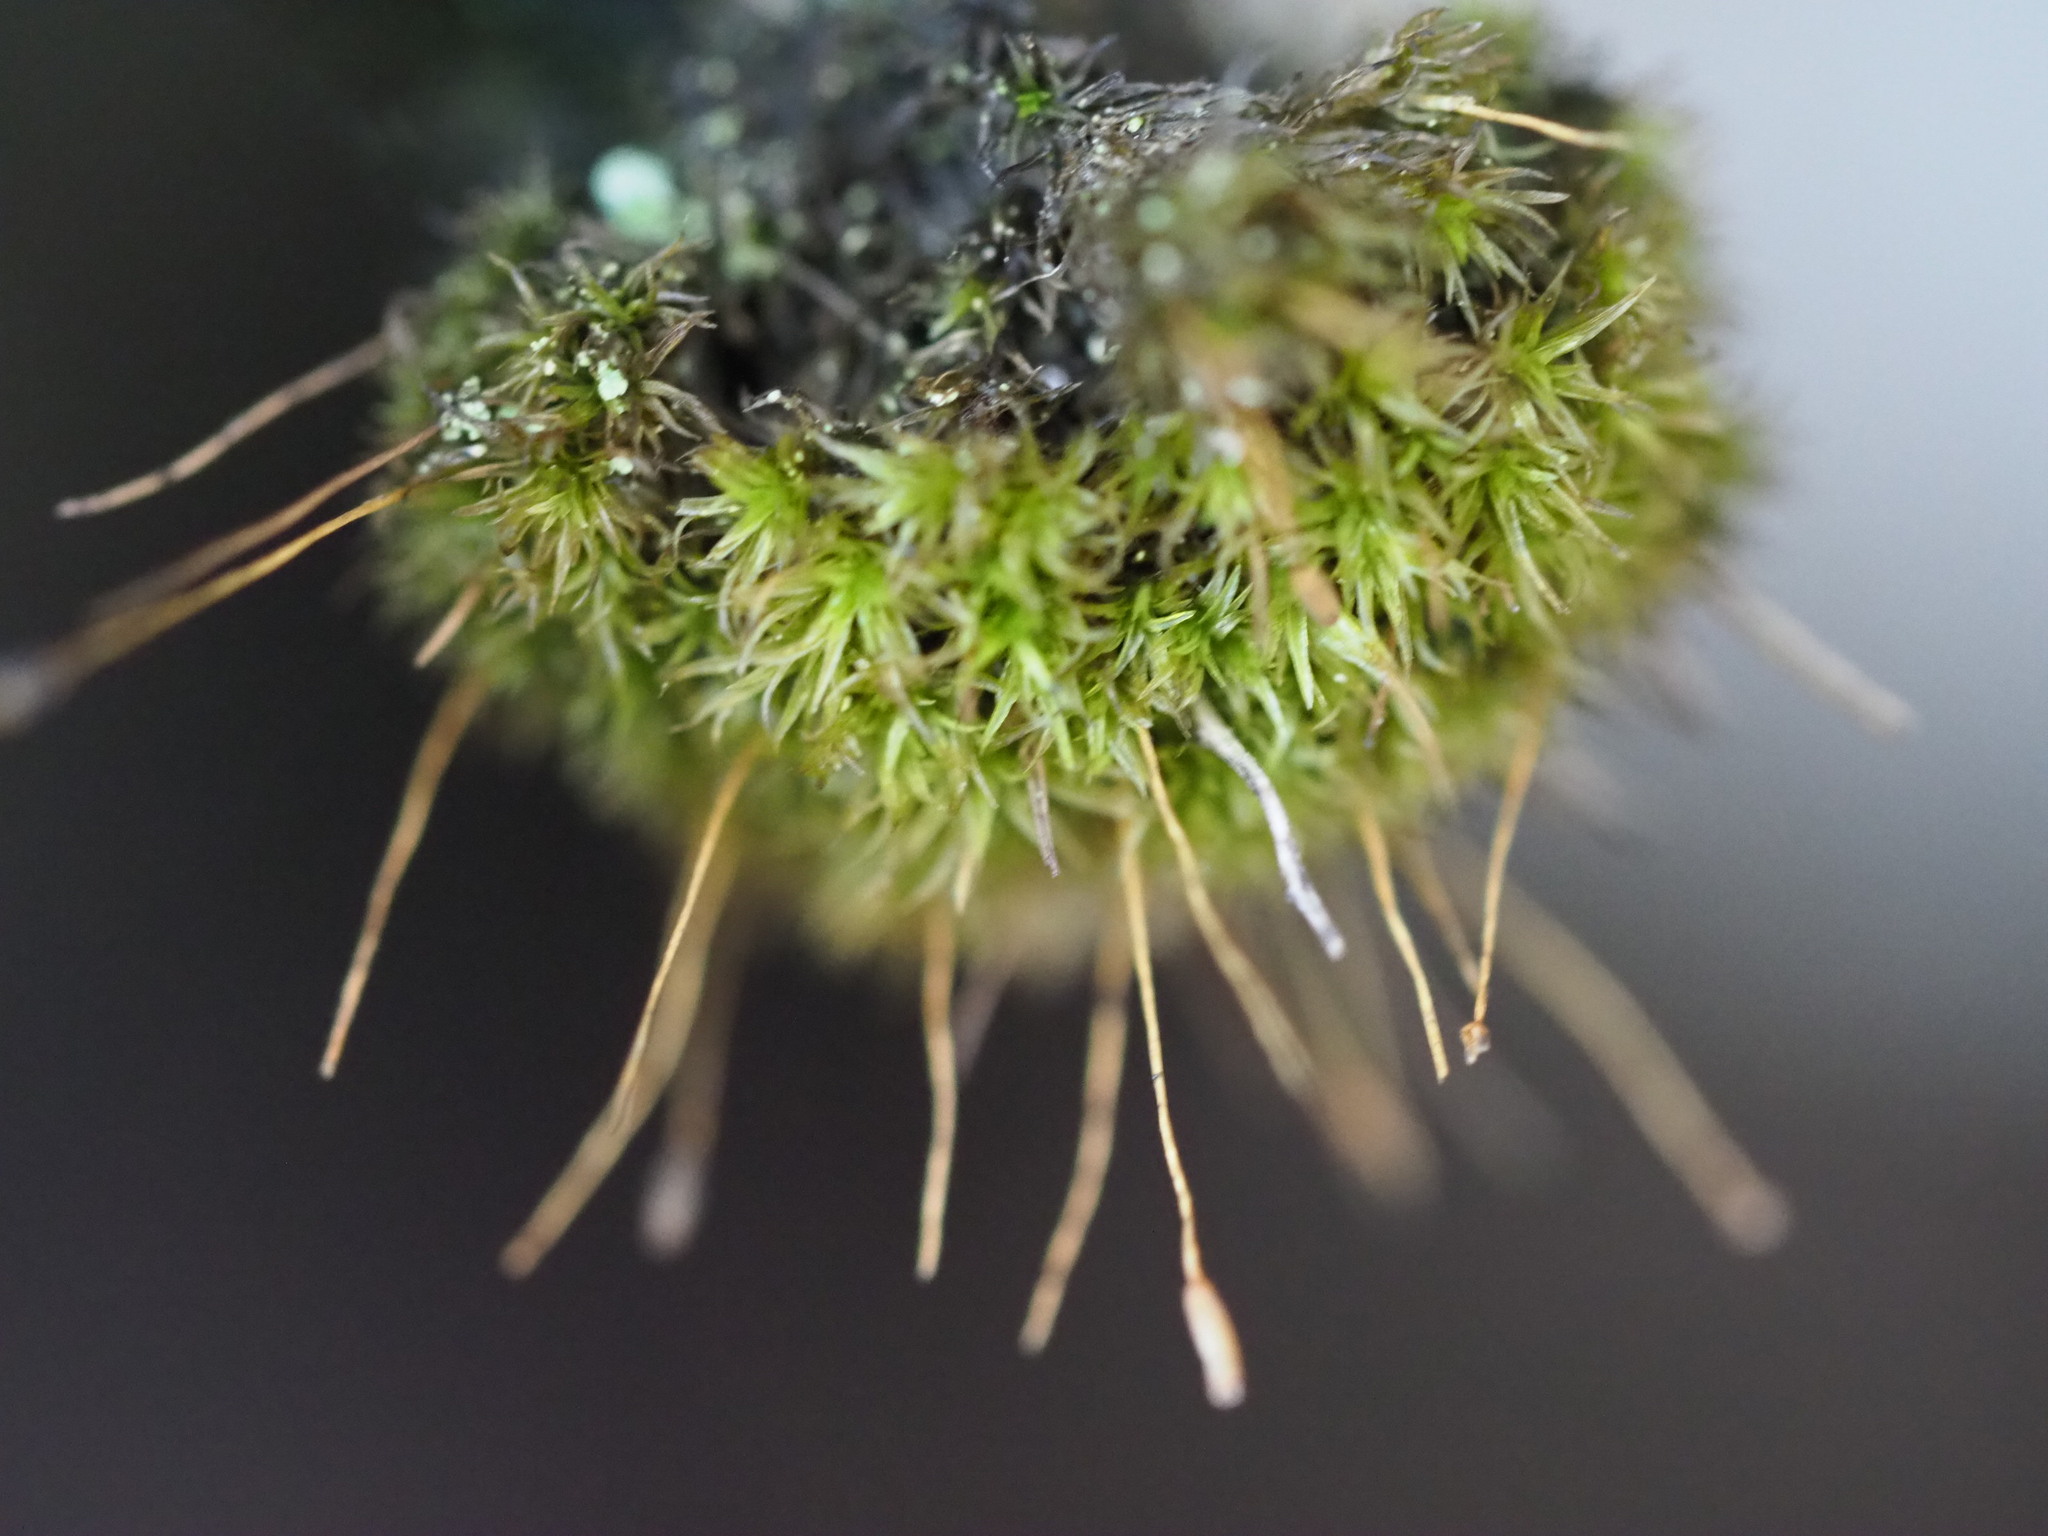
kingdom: Plantae
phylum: Bryophyta
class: Bryopsida
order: Dicranales
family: Rhabdoweisiaceae
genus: Dicranoweisia
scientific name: Dicranoweisia cirrata
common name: Common pincushion
